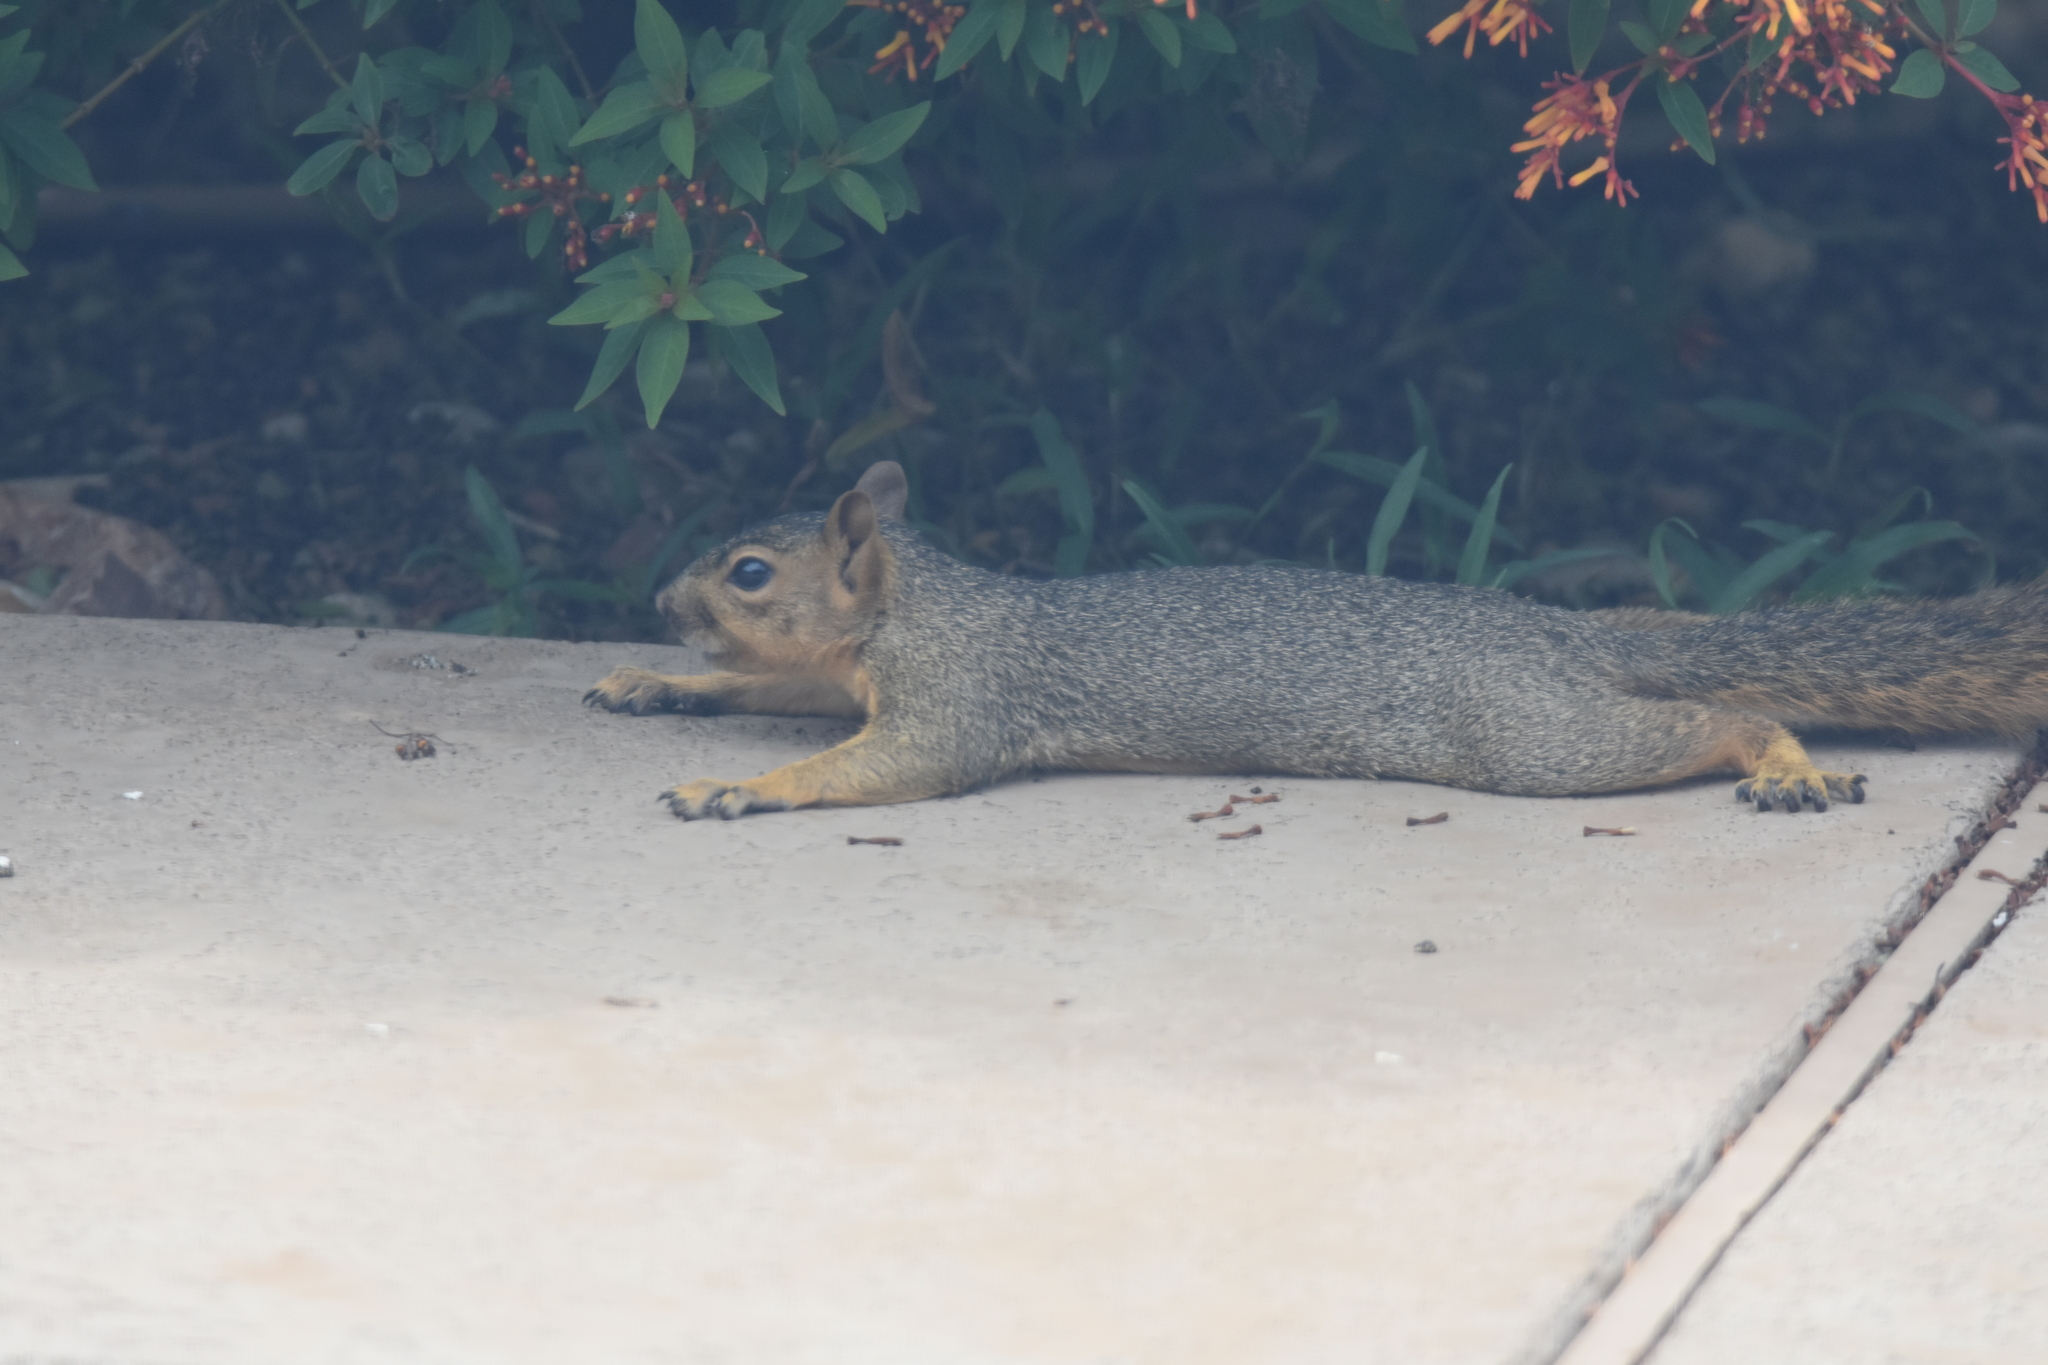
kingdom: Animalia
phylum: Chordata
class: Mammalia
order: Rodentia
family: Sciuridae
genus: Sciurus
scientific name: Sciurus niger
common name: Fox squirrel
